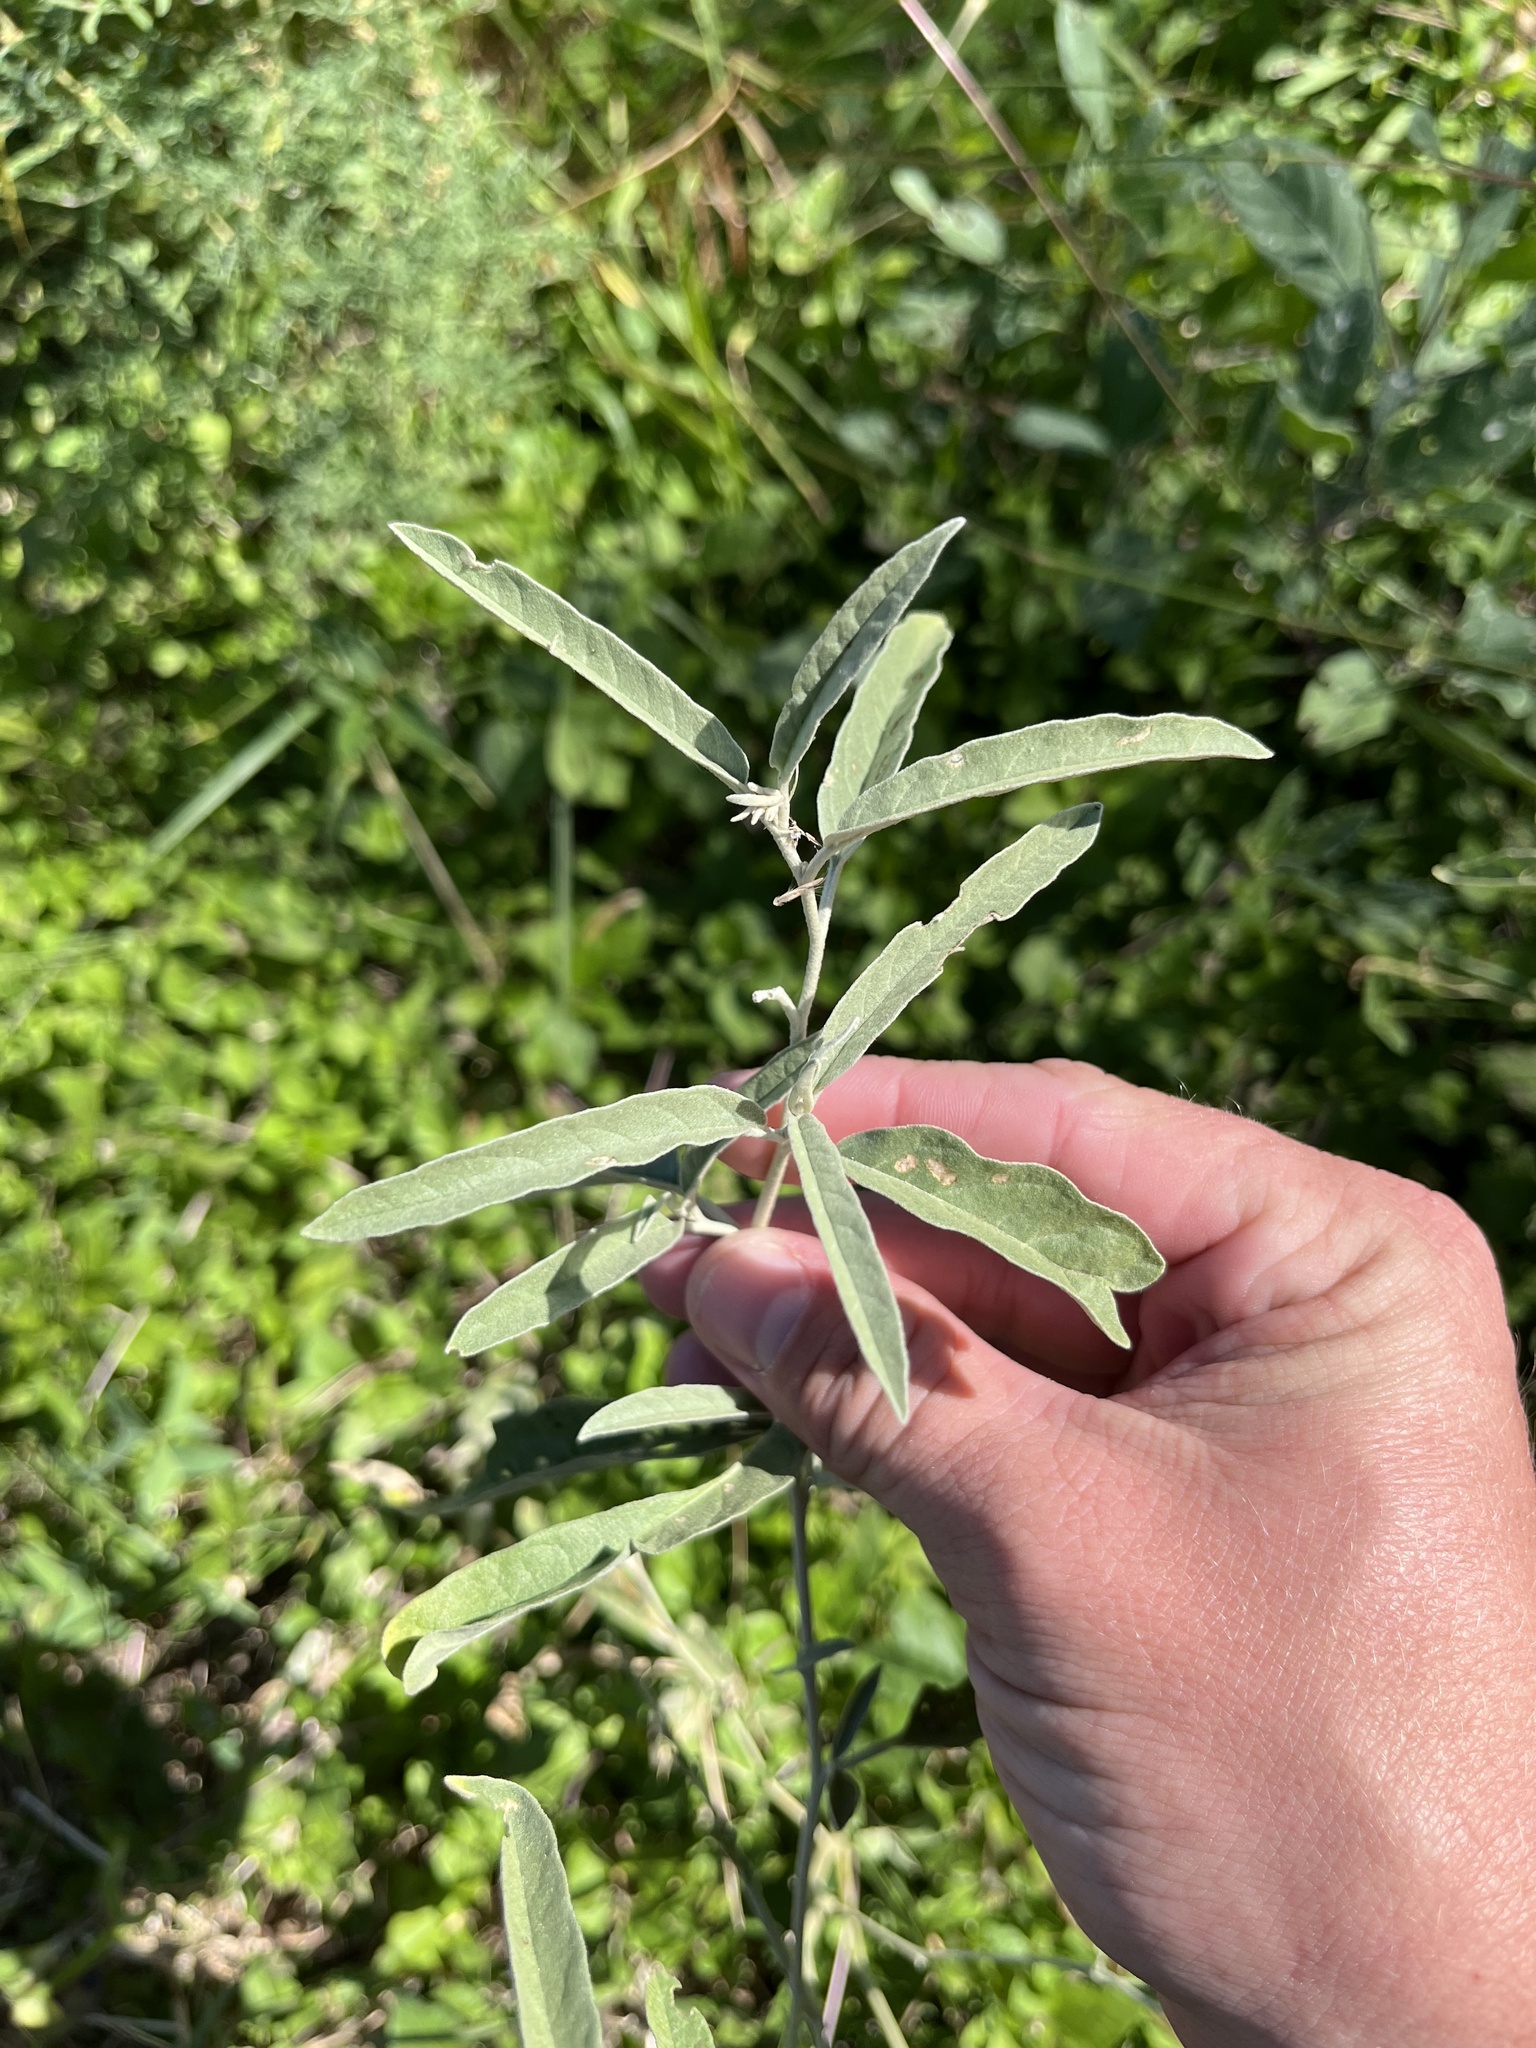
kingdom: Plantae
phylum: Tracheophyta
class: Magnoliopsida
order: Solanales
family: Solanaceae
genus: Solanum
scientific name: Solanum elaeagnifolium
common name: Silverleaf nightshade
